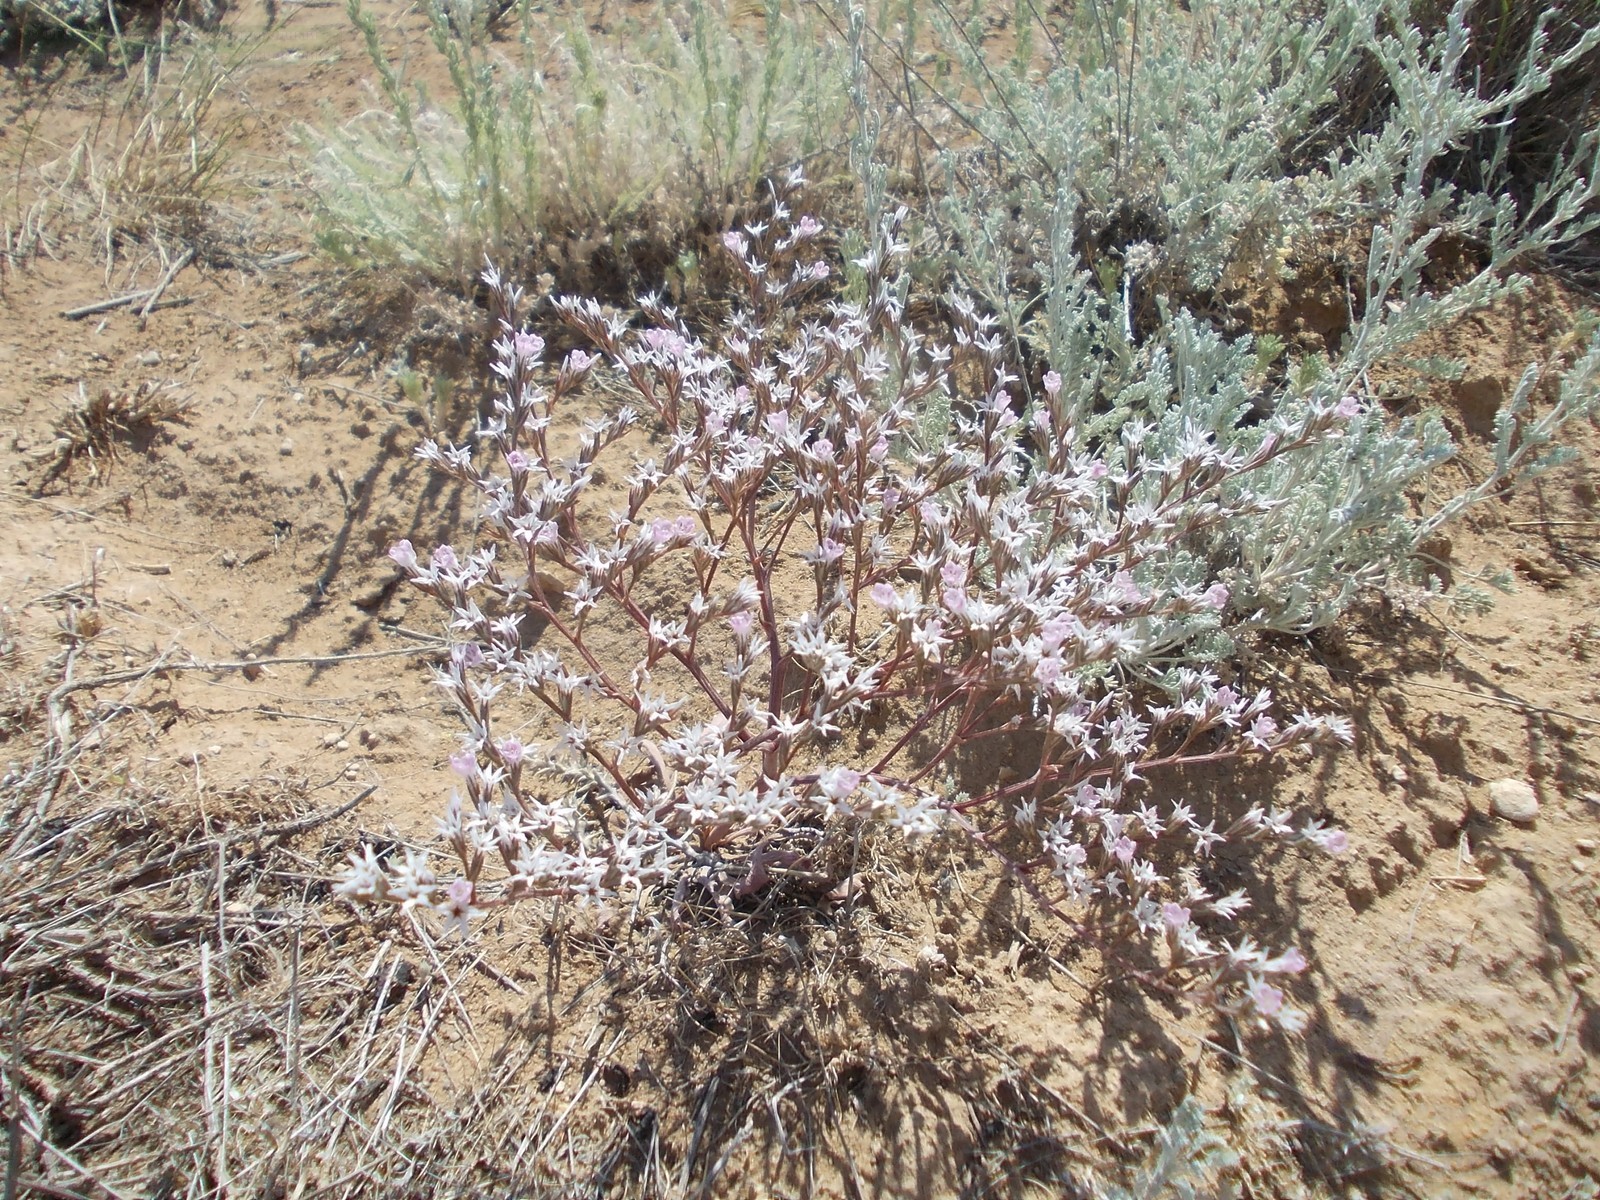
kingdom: Plantae
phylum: Tracheophyta
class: Magnoliopsida
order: Caryophyllales
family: Plumbaginaceae
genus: Goniolimon
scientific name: Goniolimon rubellum
